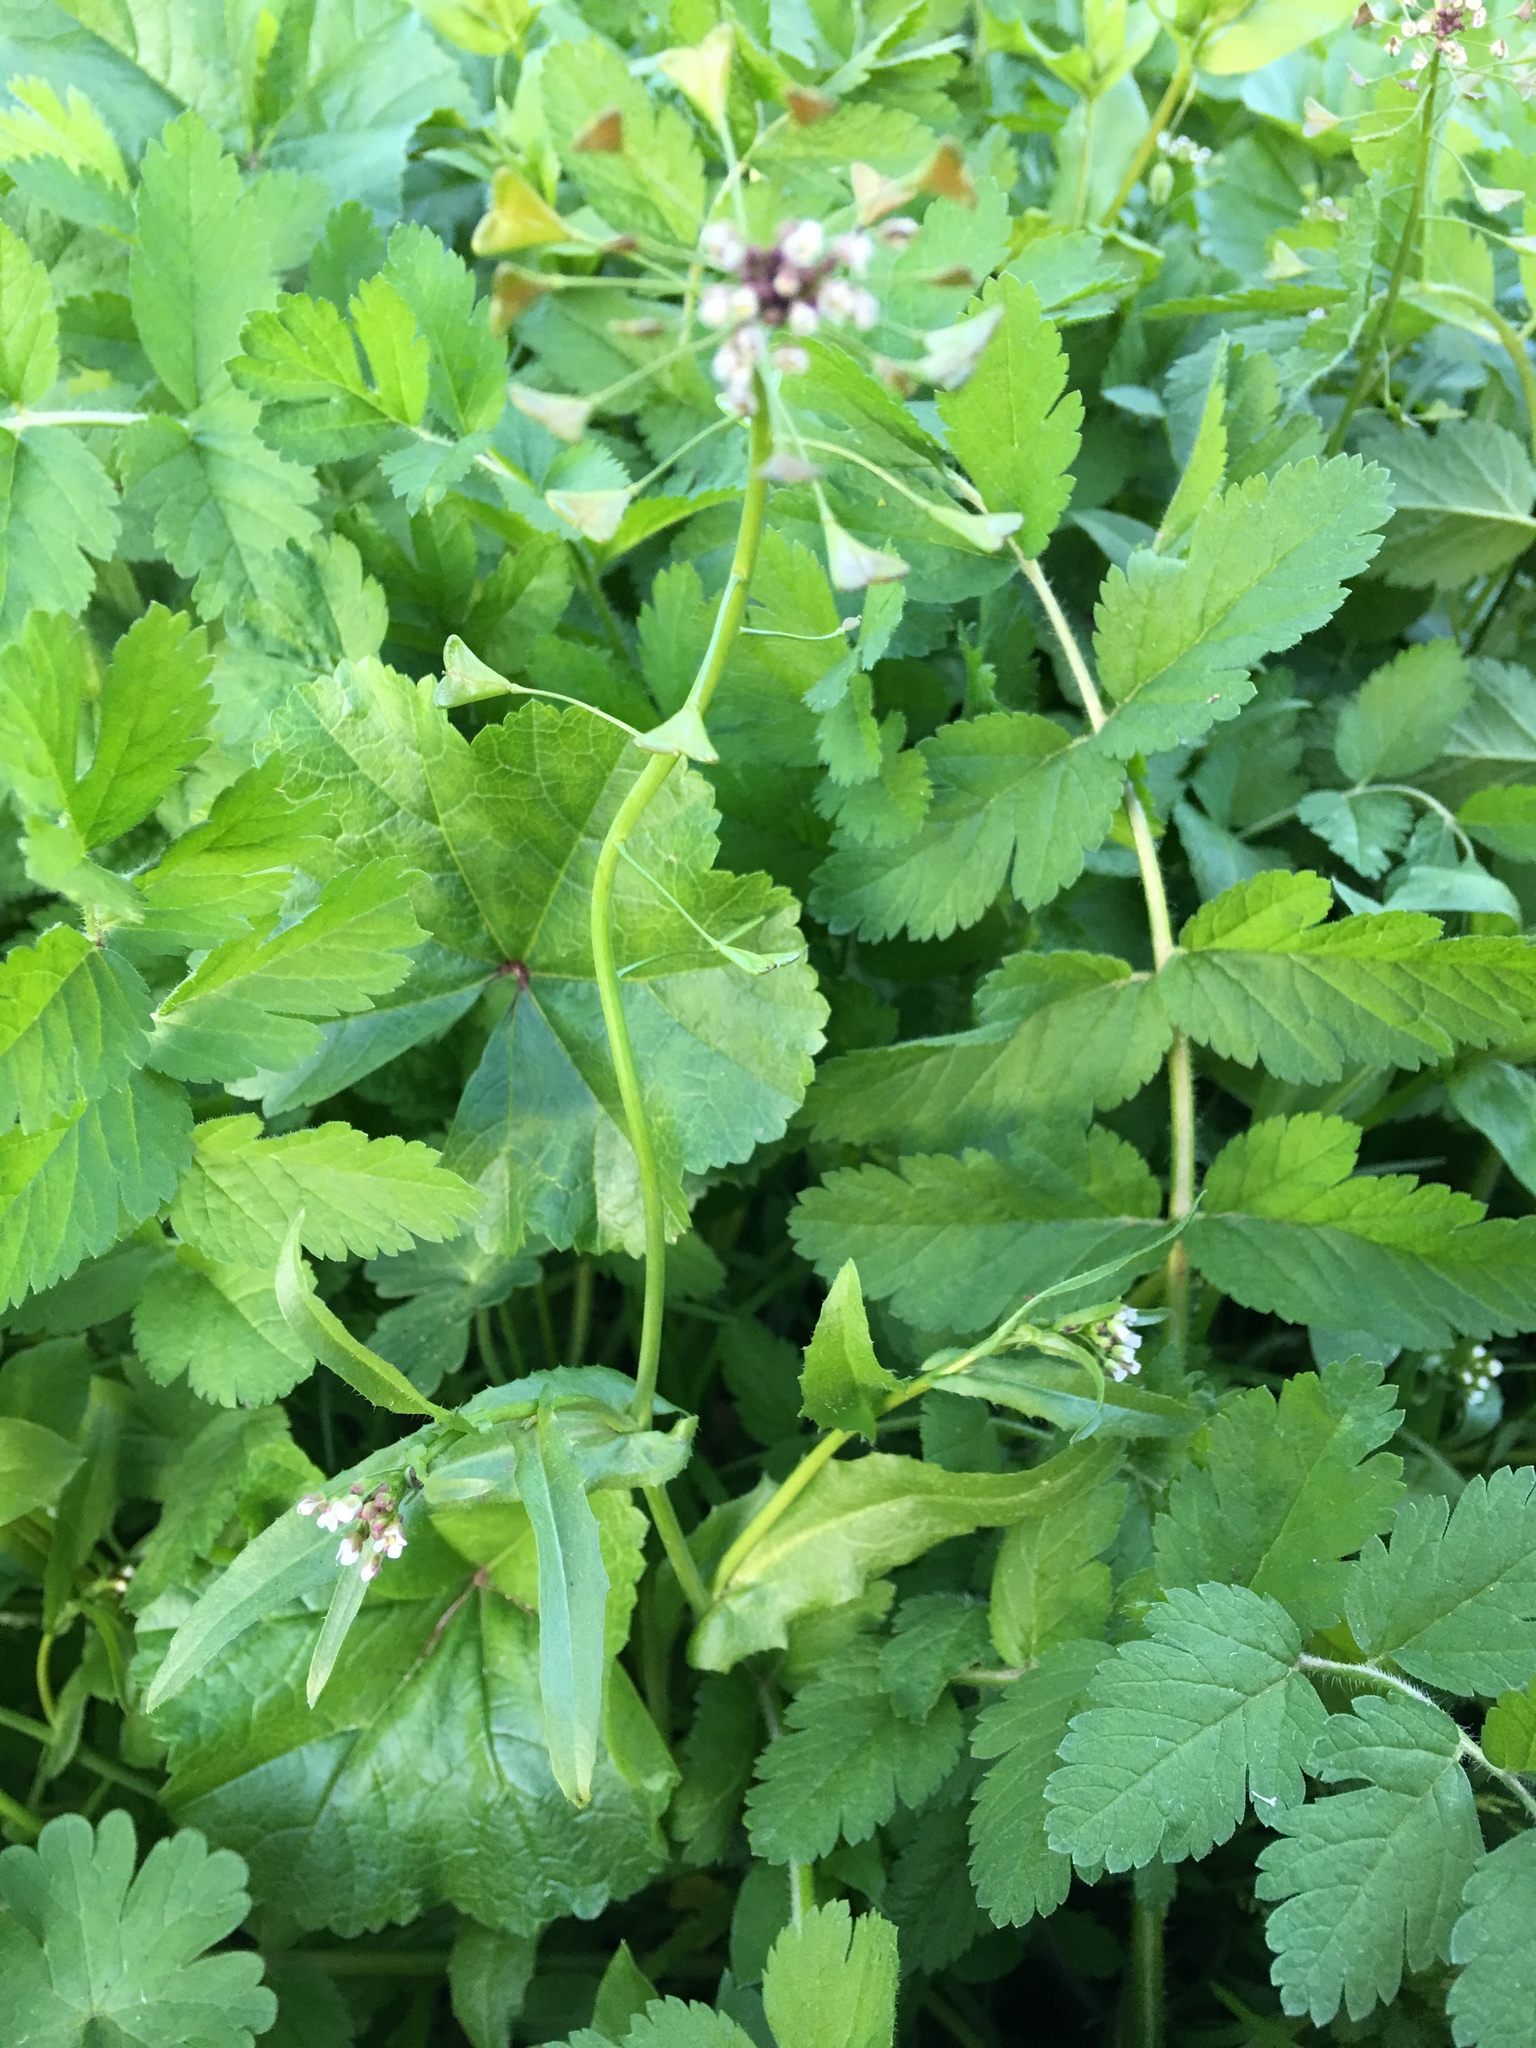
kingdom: Plantae
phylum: Tracheophyta
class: Magnoliopsida
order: Brassicales
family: Brassicaceae
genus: Capsella
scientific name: Capsella bursa-pastoris
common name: Shepherd's purse
